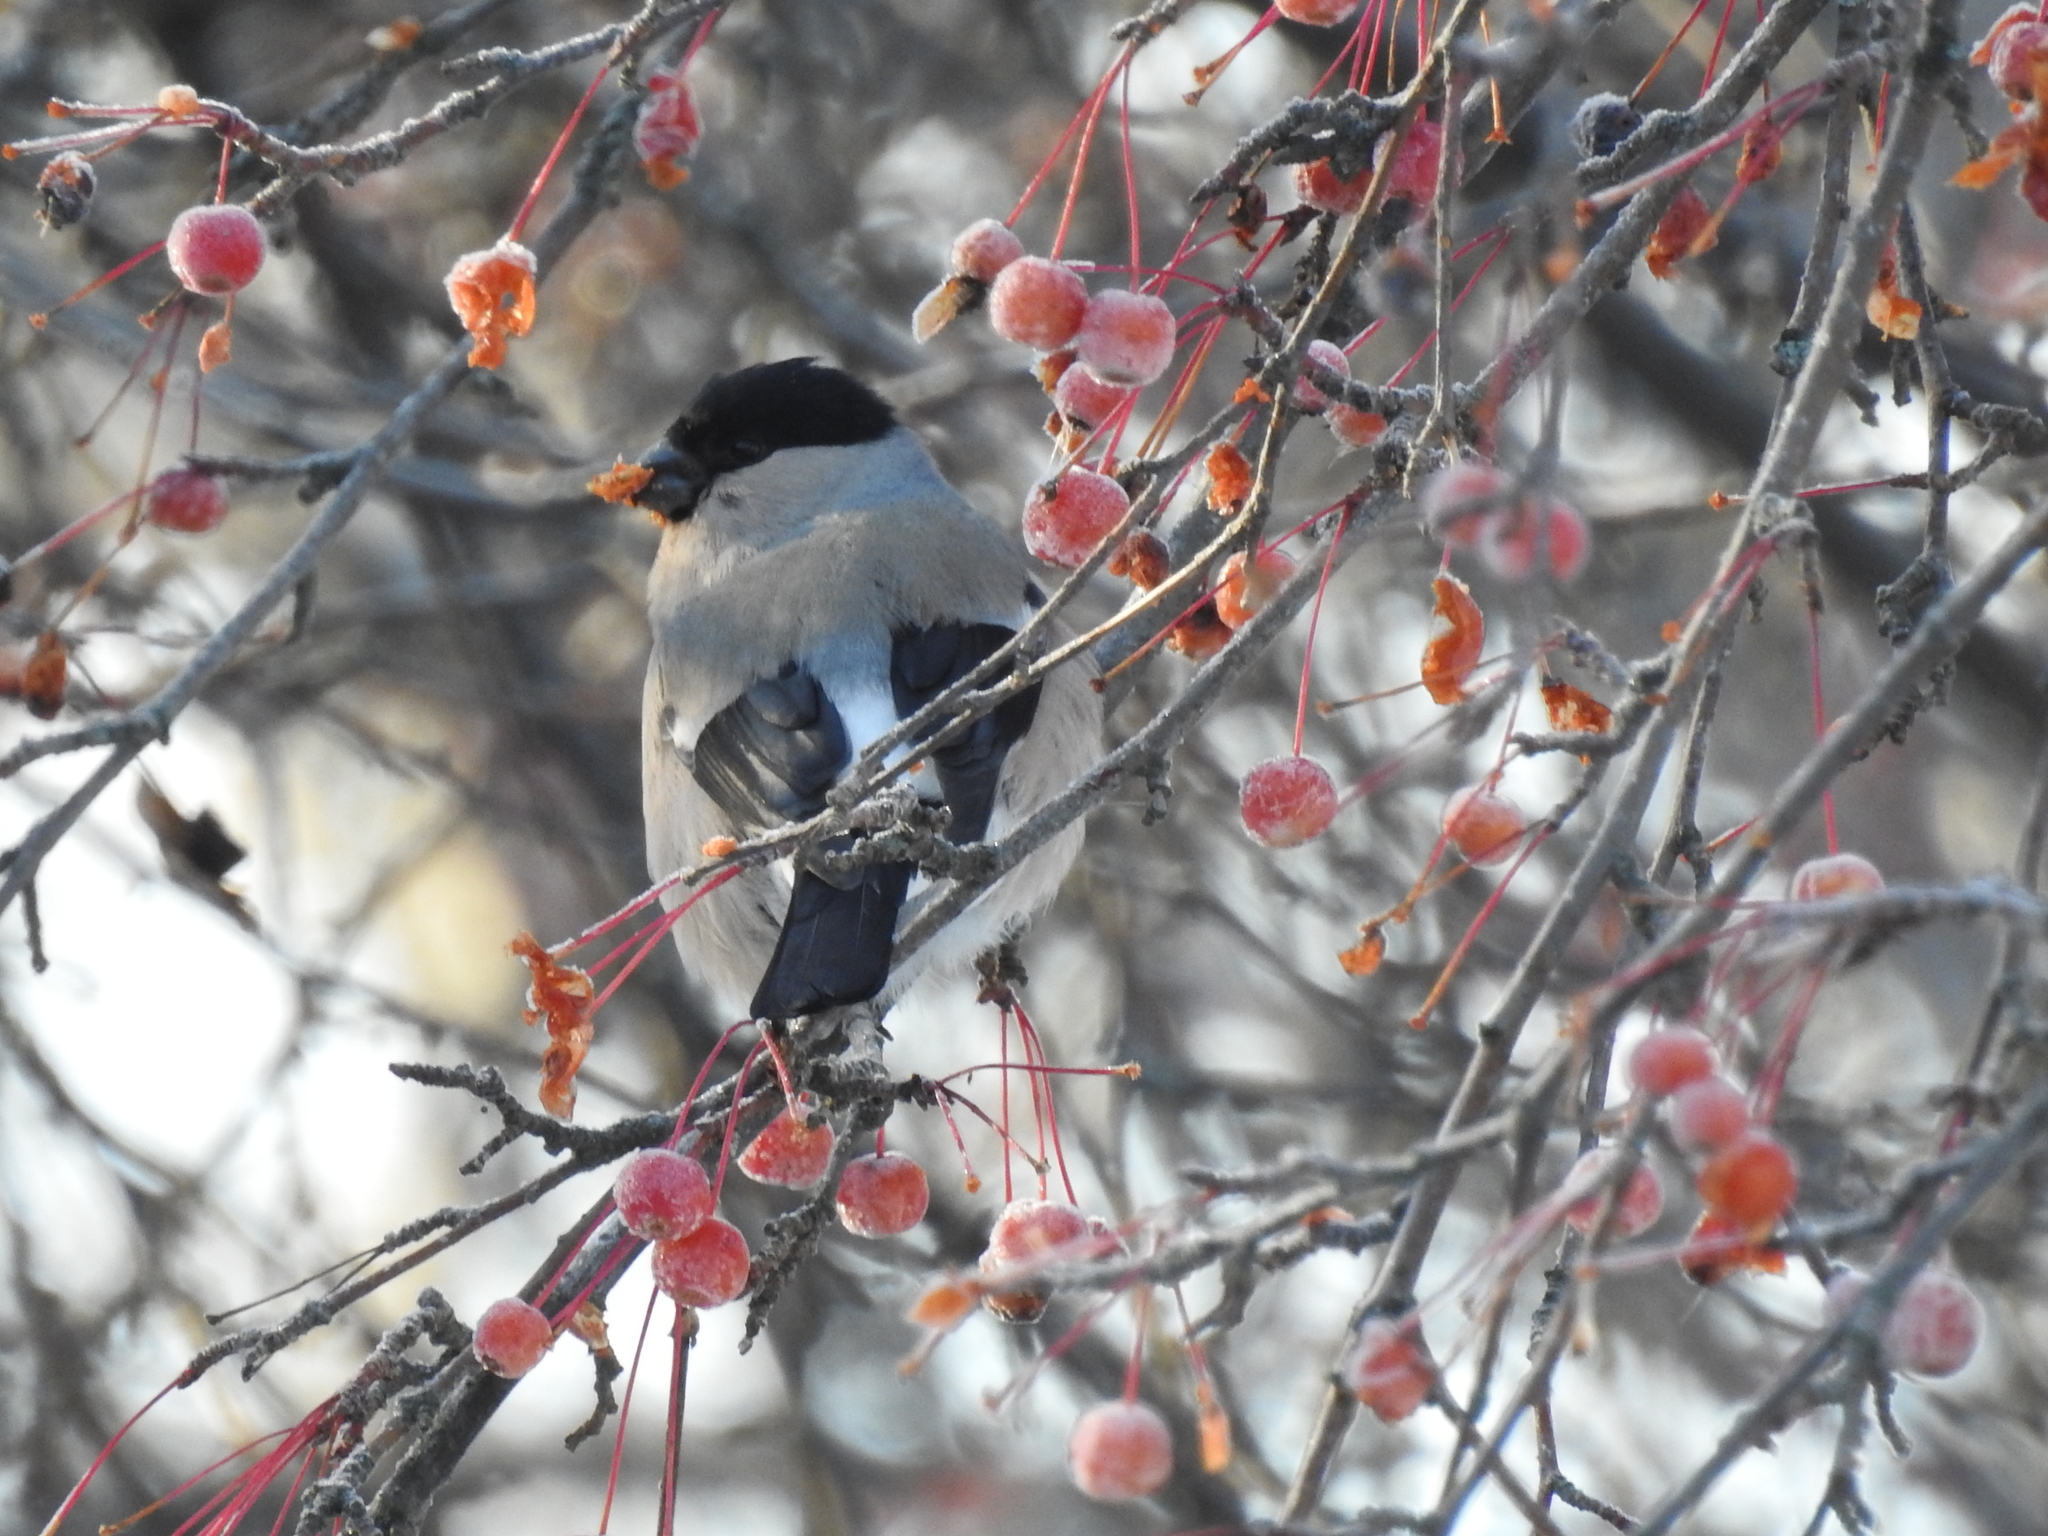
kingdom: Animalia
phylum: Chordata
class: Aves
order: Passeriformes
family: Fringillidae
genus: Pyrrhula
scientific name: Pyrrhula pyrrhula
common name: Eurasian bullfinch
